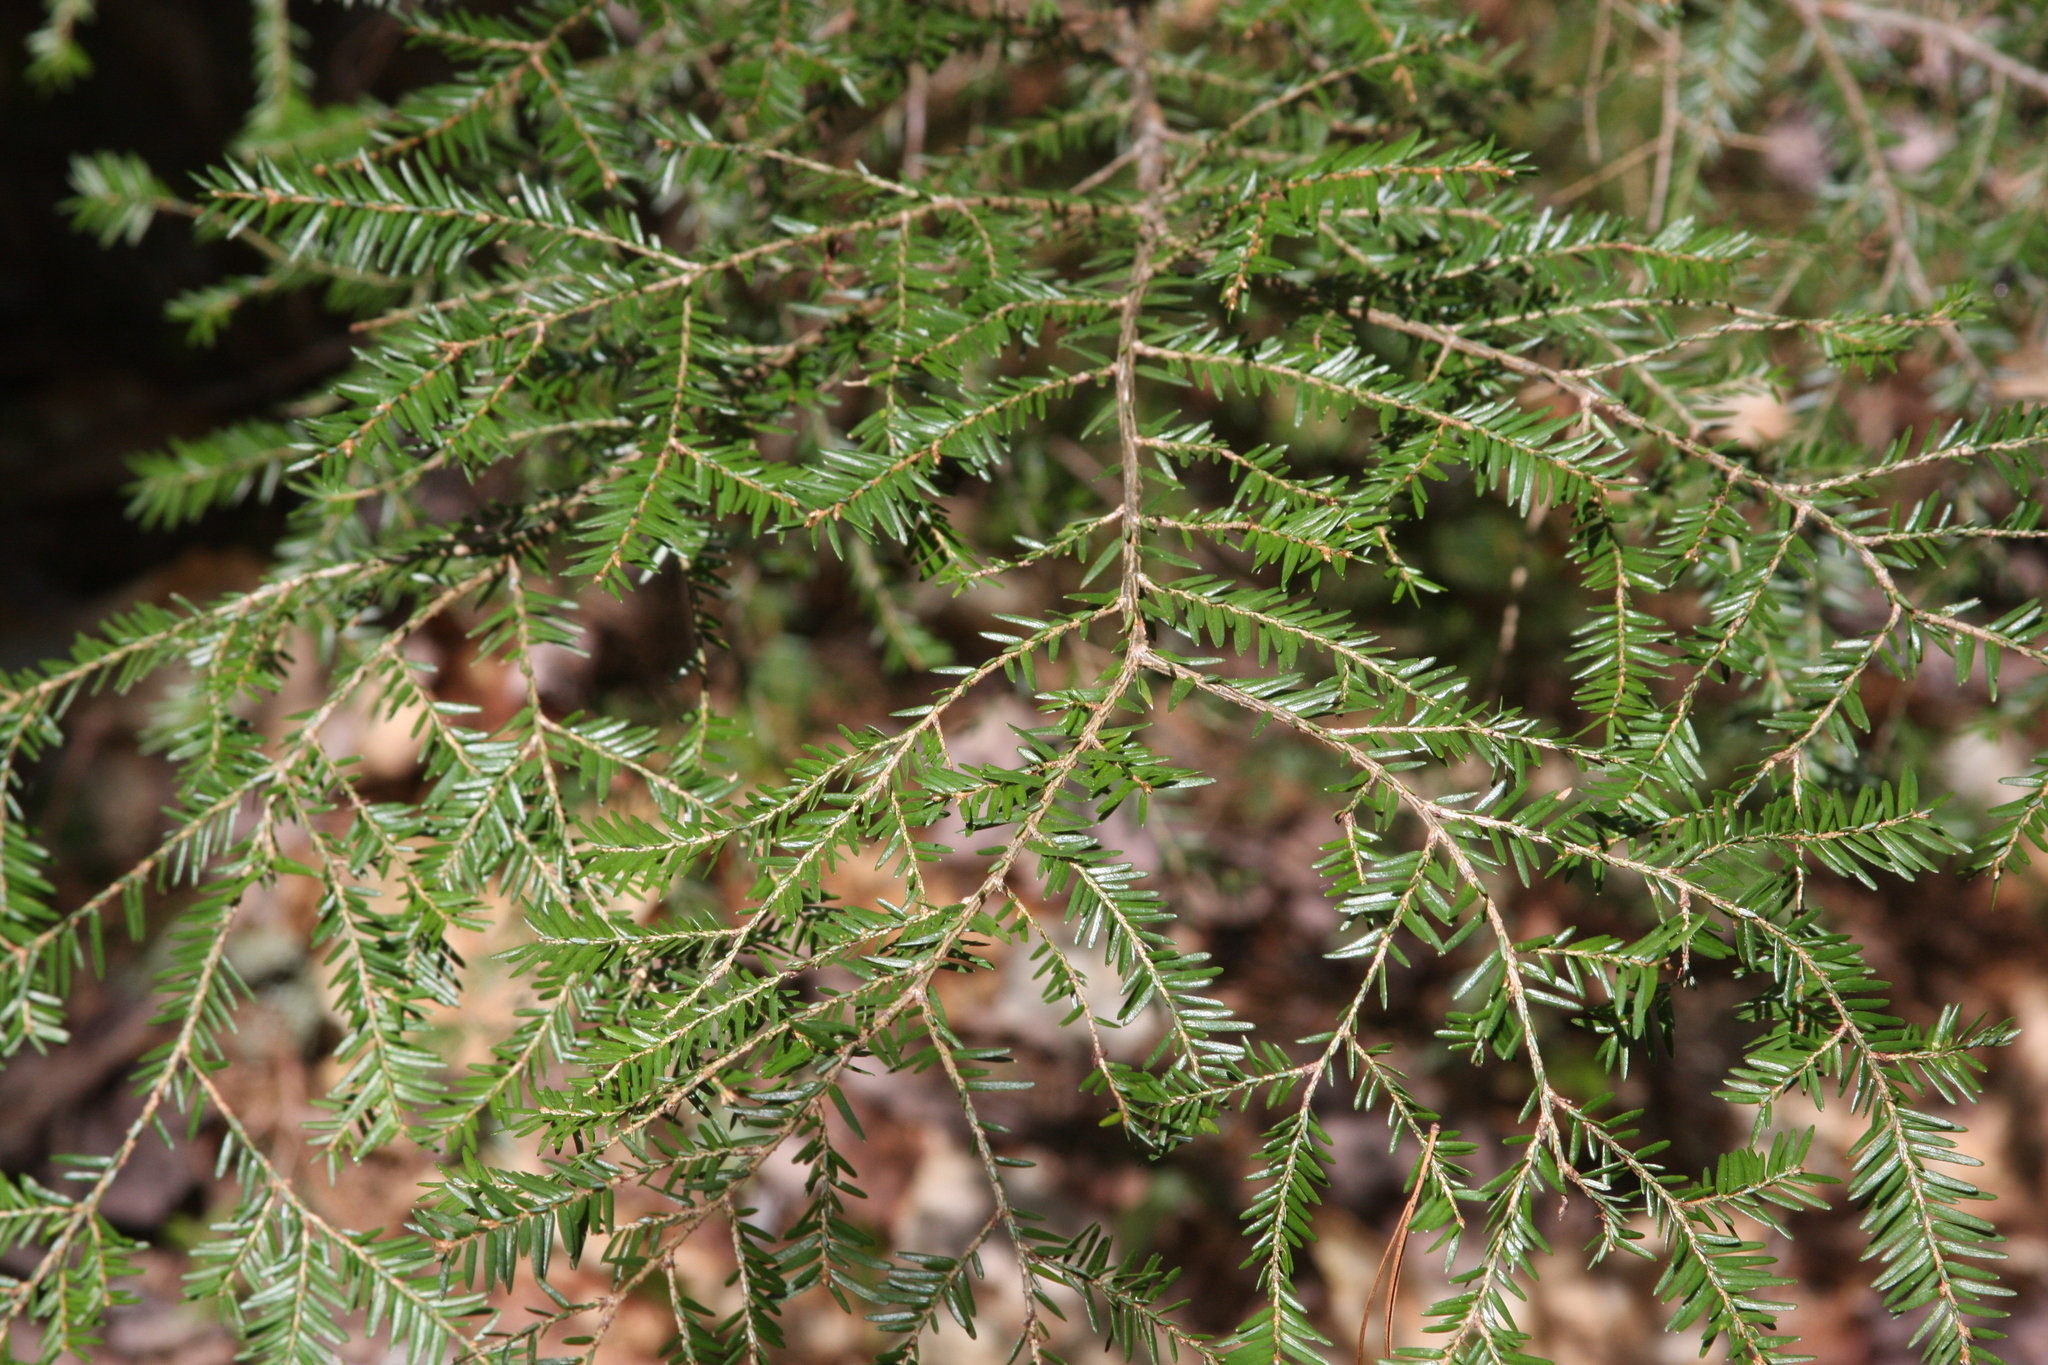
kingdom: Plantae
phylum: Tracheophyta
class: Pinopsida
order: Pinales
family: Pinaceae
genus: Tsuga
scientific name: Tsuga canadensis
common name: Eastern hemlock
